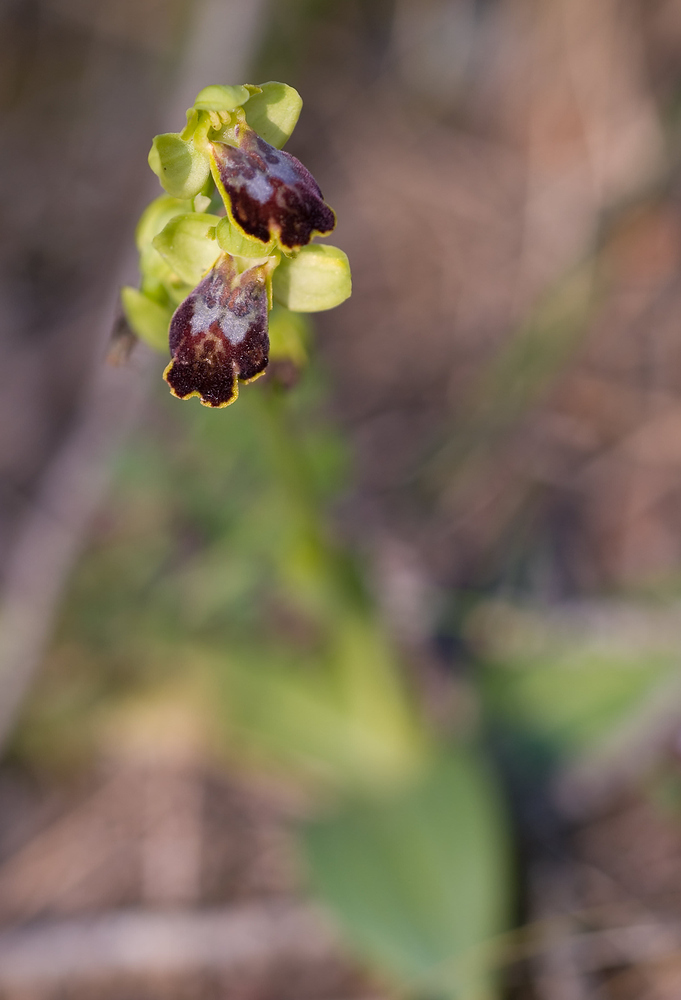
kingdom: Plantae
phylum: Tracheophyta
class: Liliopsida
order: Asparagales
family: Orchidaceae
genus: Ophrys
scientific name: Ophrys fusca
